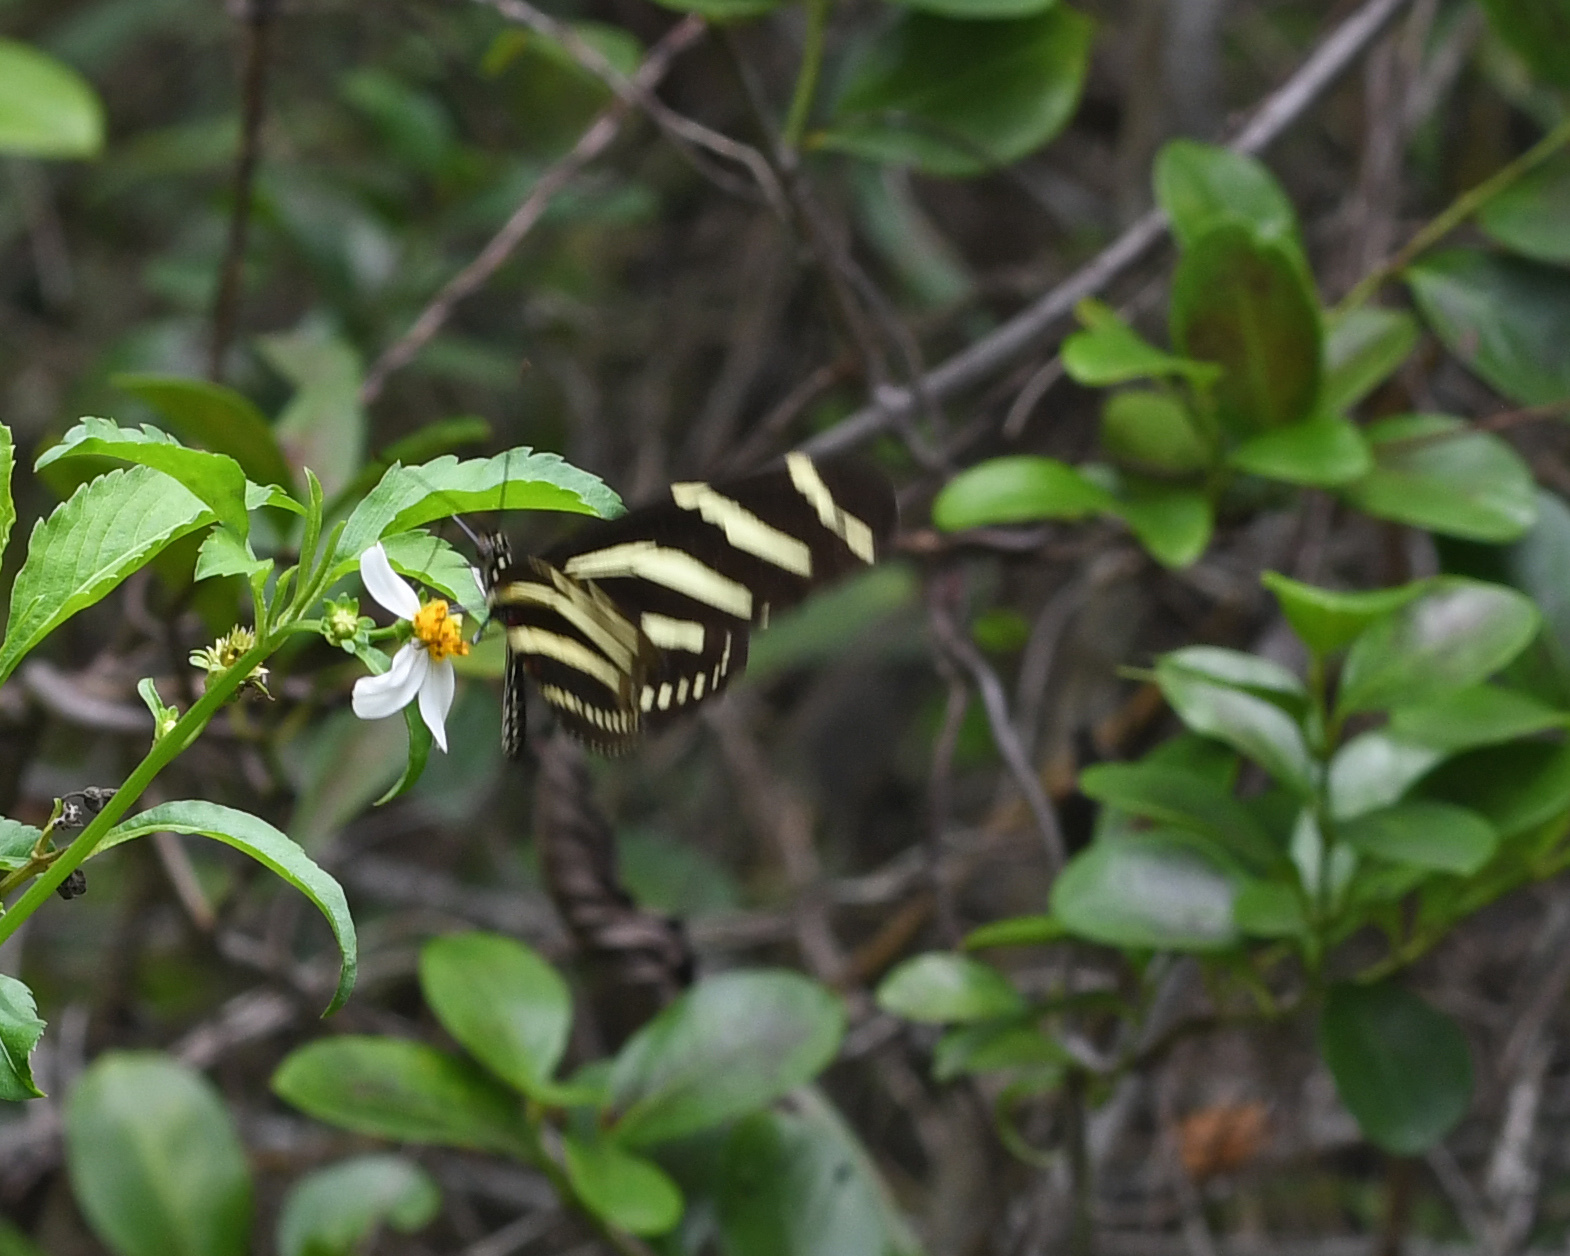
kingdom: Animalia
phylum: Arthropoda
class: Insecta
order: Lepidoptera
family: Nymphalidae
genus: Heliconius
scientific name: Heliconius charithonia
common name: Zebra long wing
